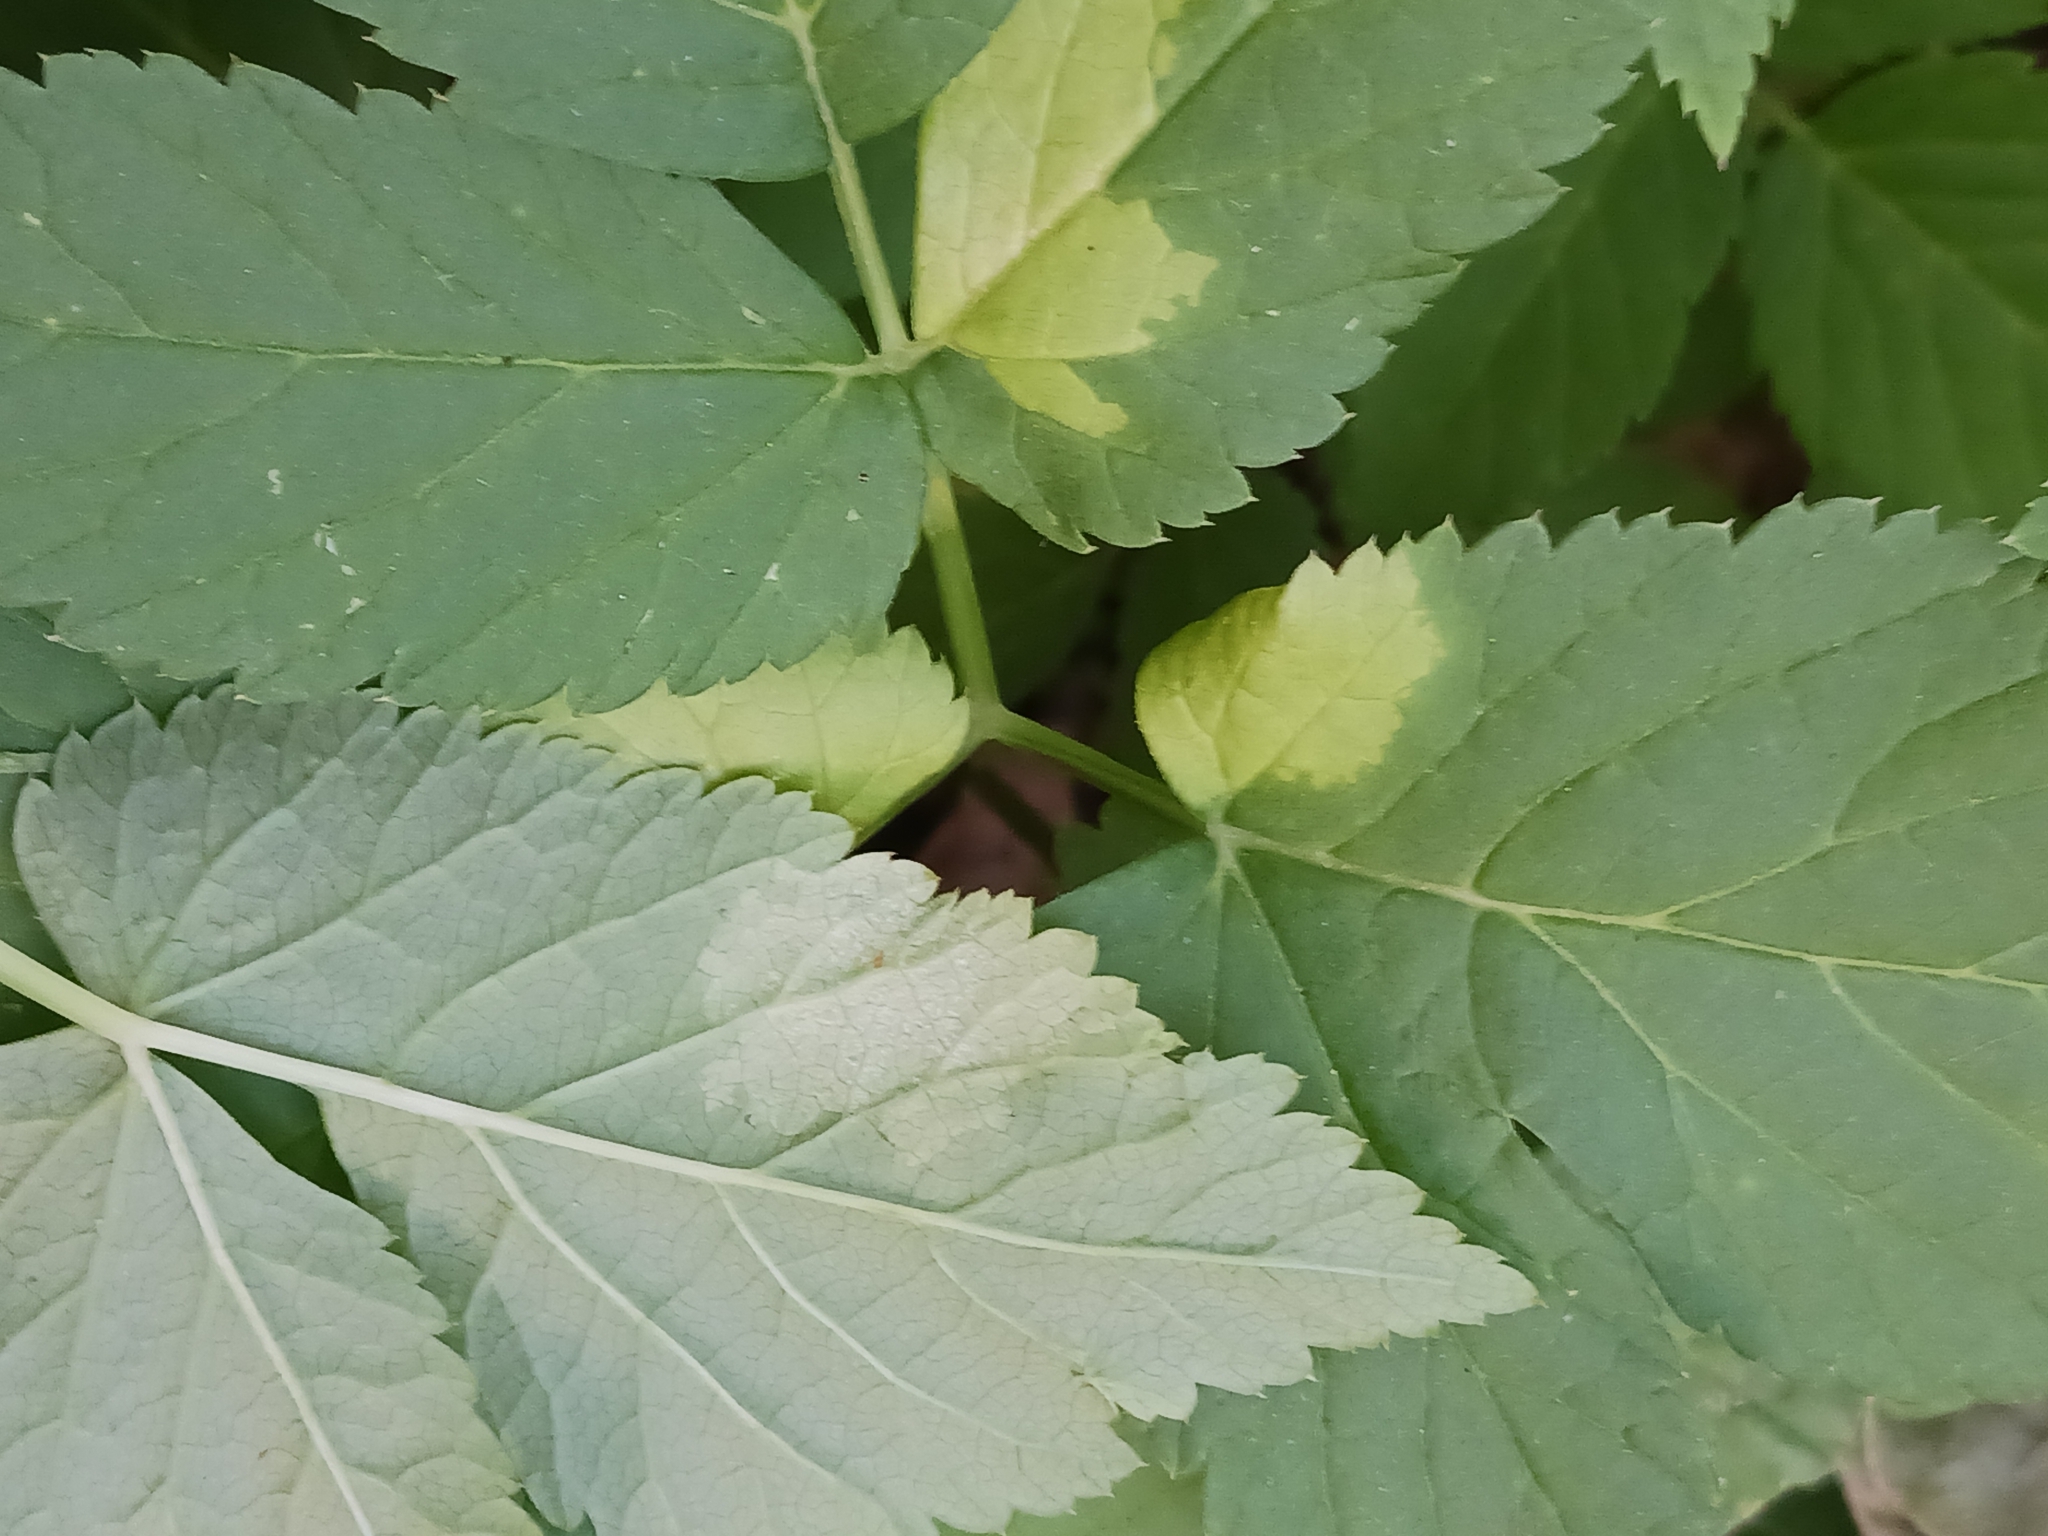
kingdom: Chromista
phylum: Oomycota
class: Peronosporea
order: Peronosporales
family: Peronosporaceae
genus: Peronospora
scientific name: Peronospora crustosa
